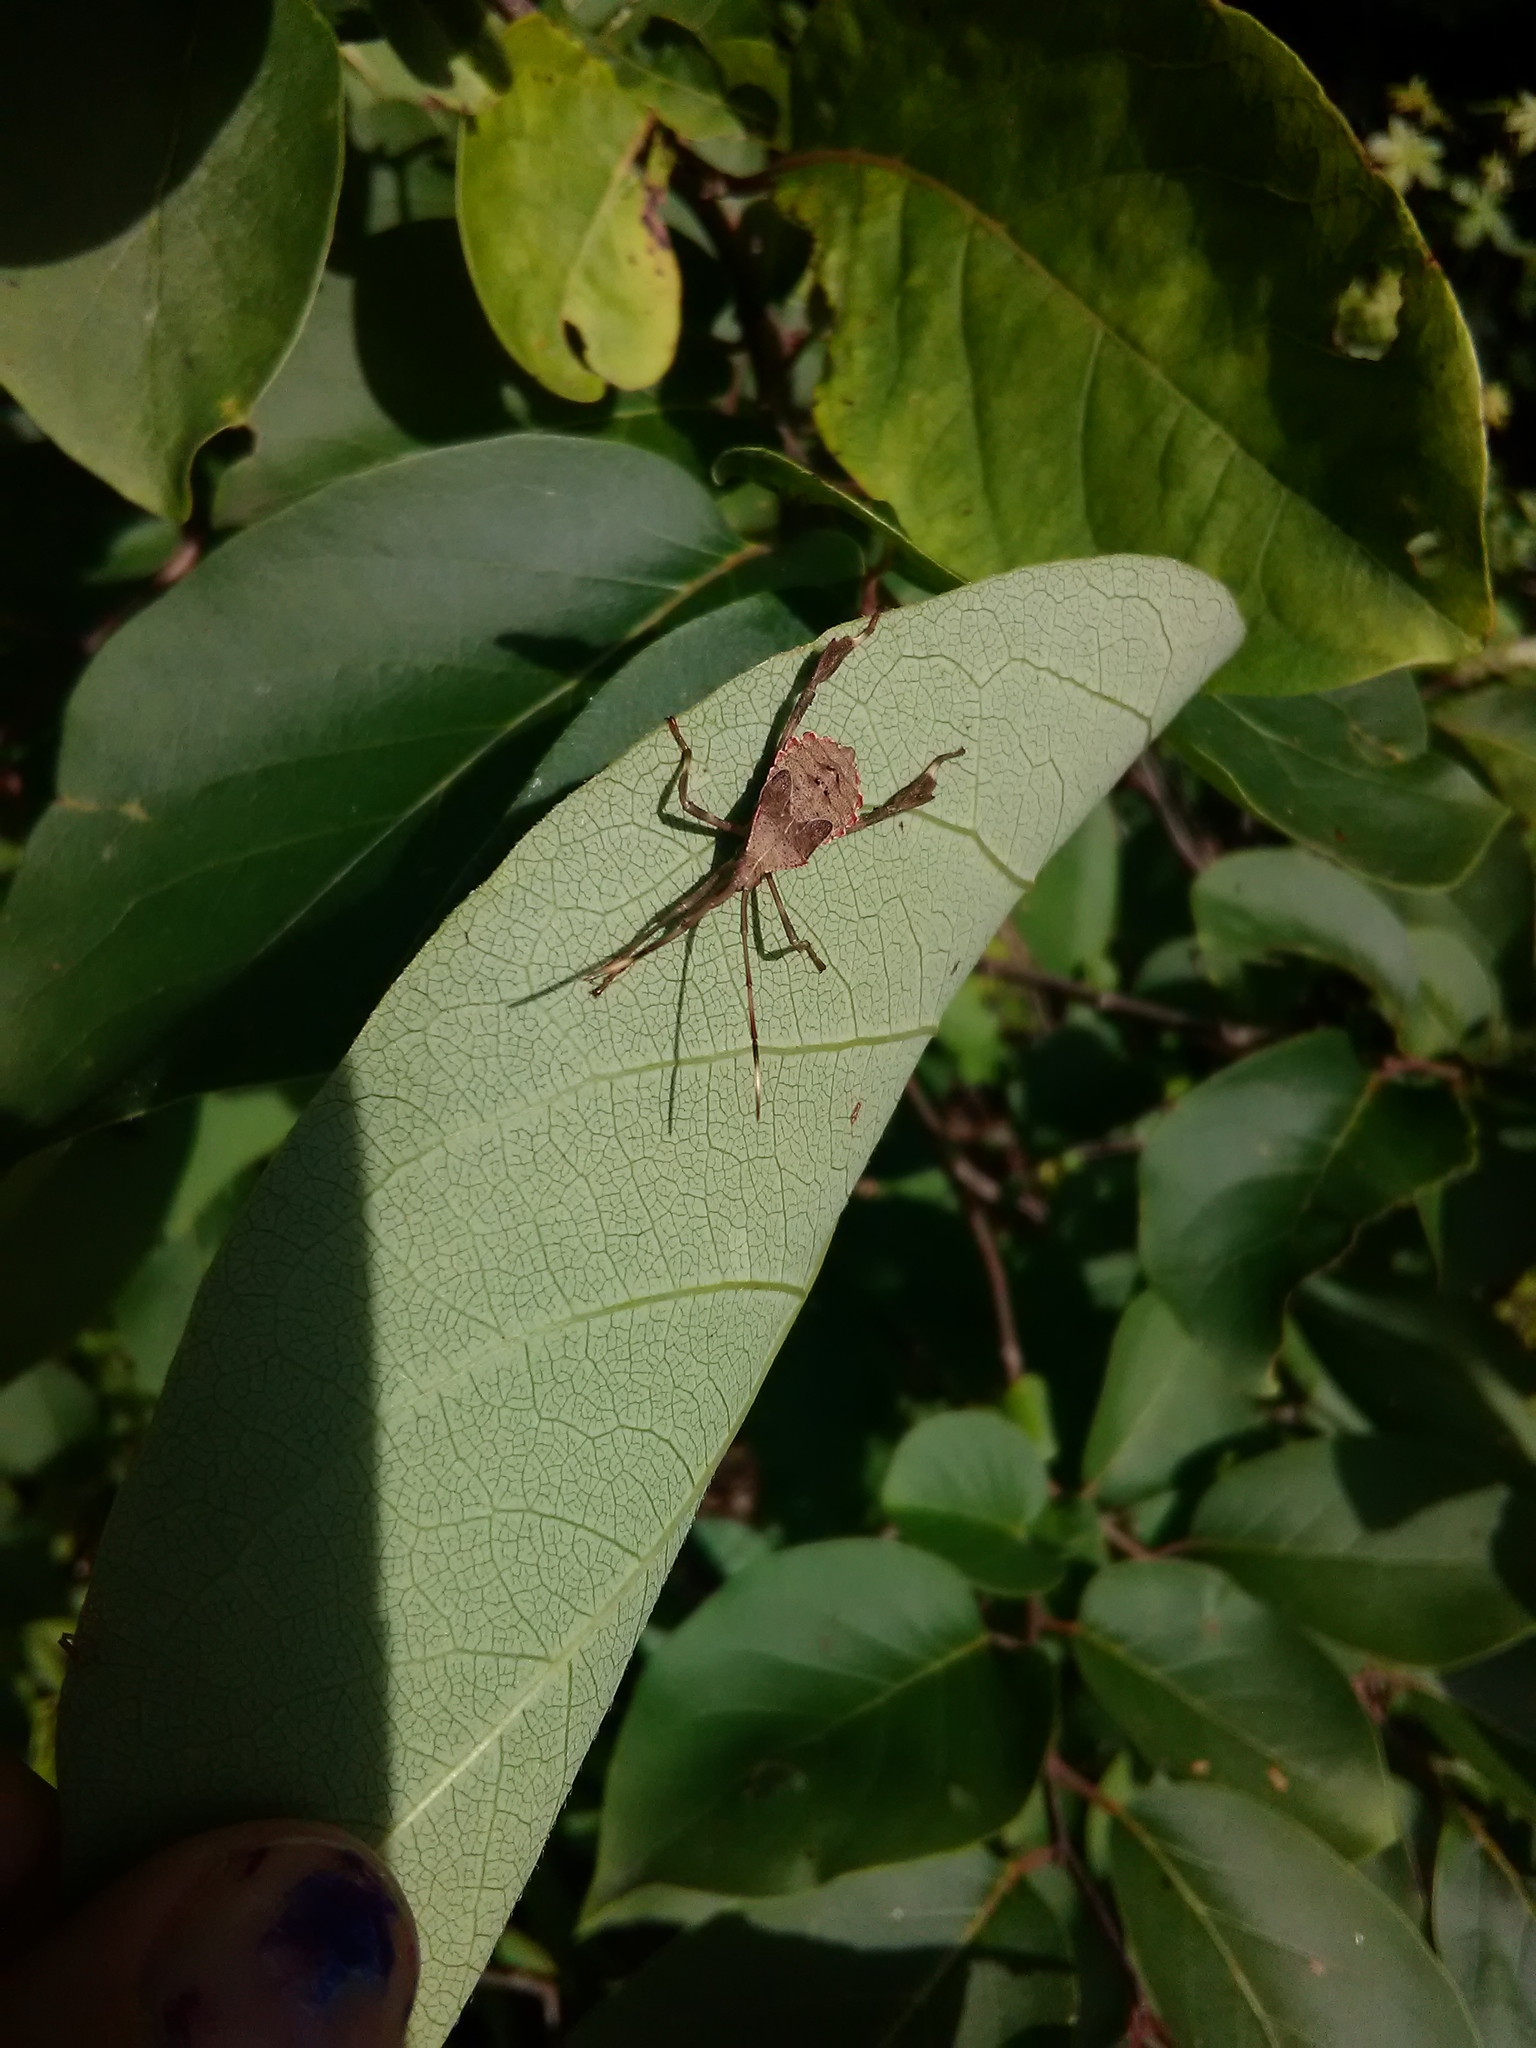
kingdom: Animalia
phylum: Arthropoda
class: Insecta
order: Hemiptera
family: Coreidae
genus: Acanthocephala
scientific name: Acanthocephala
